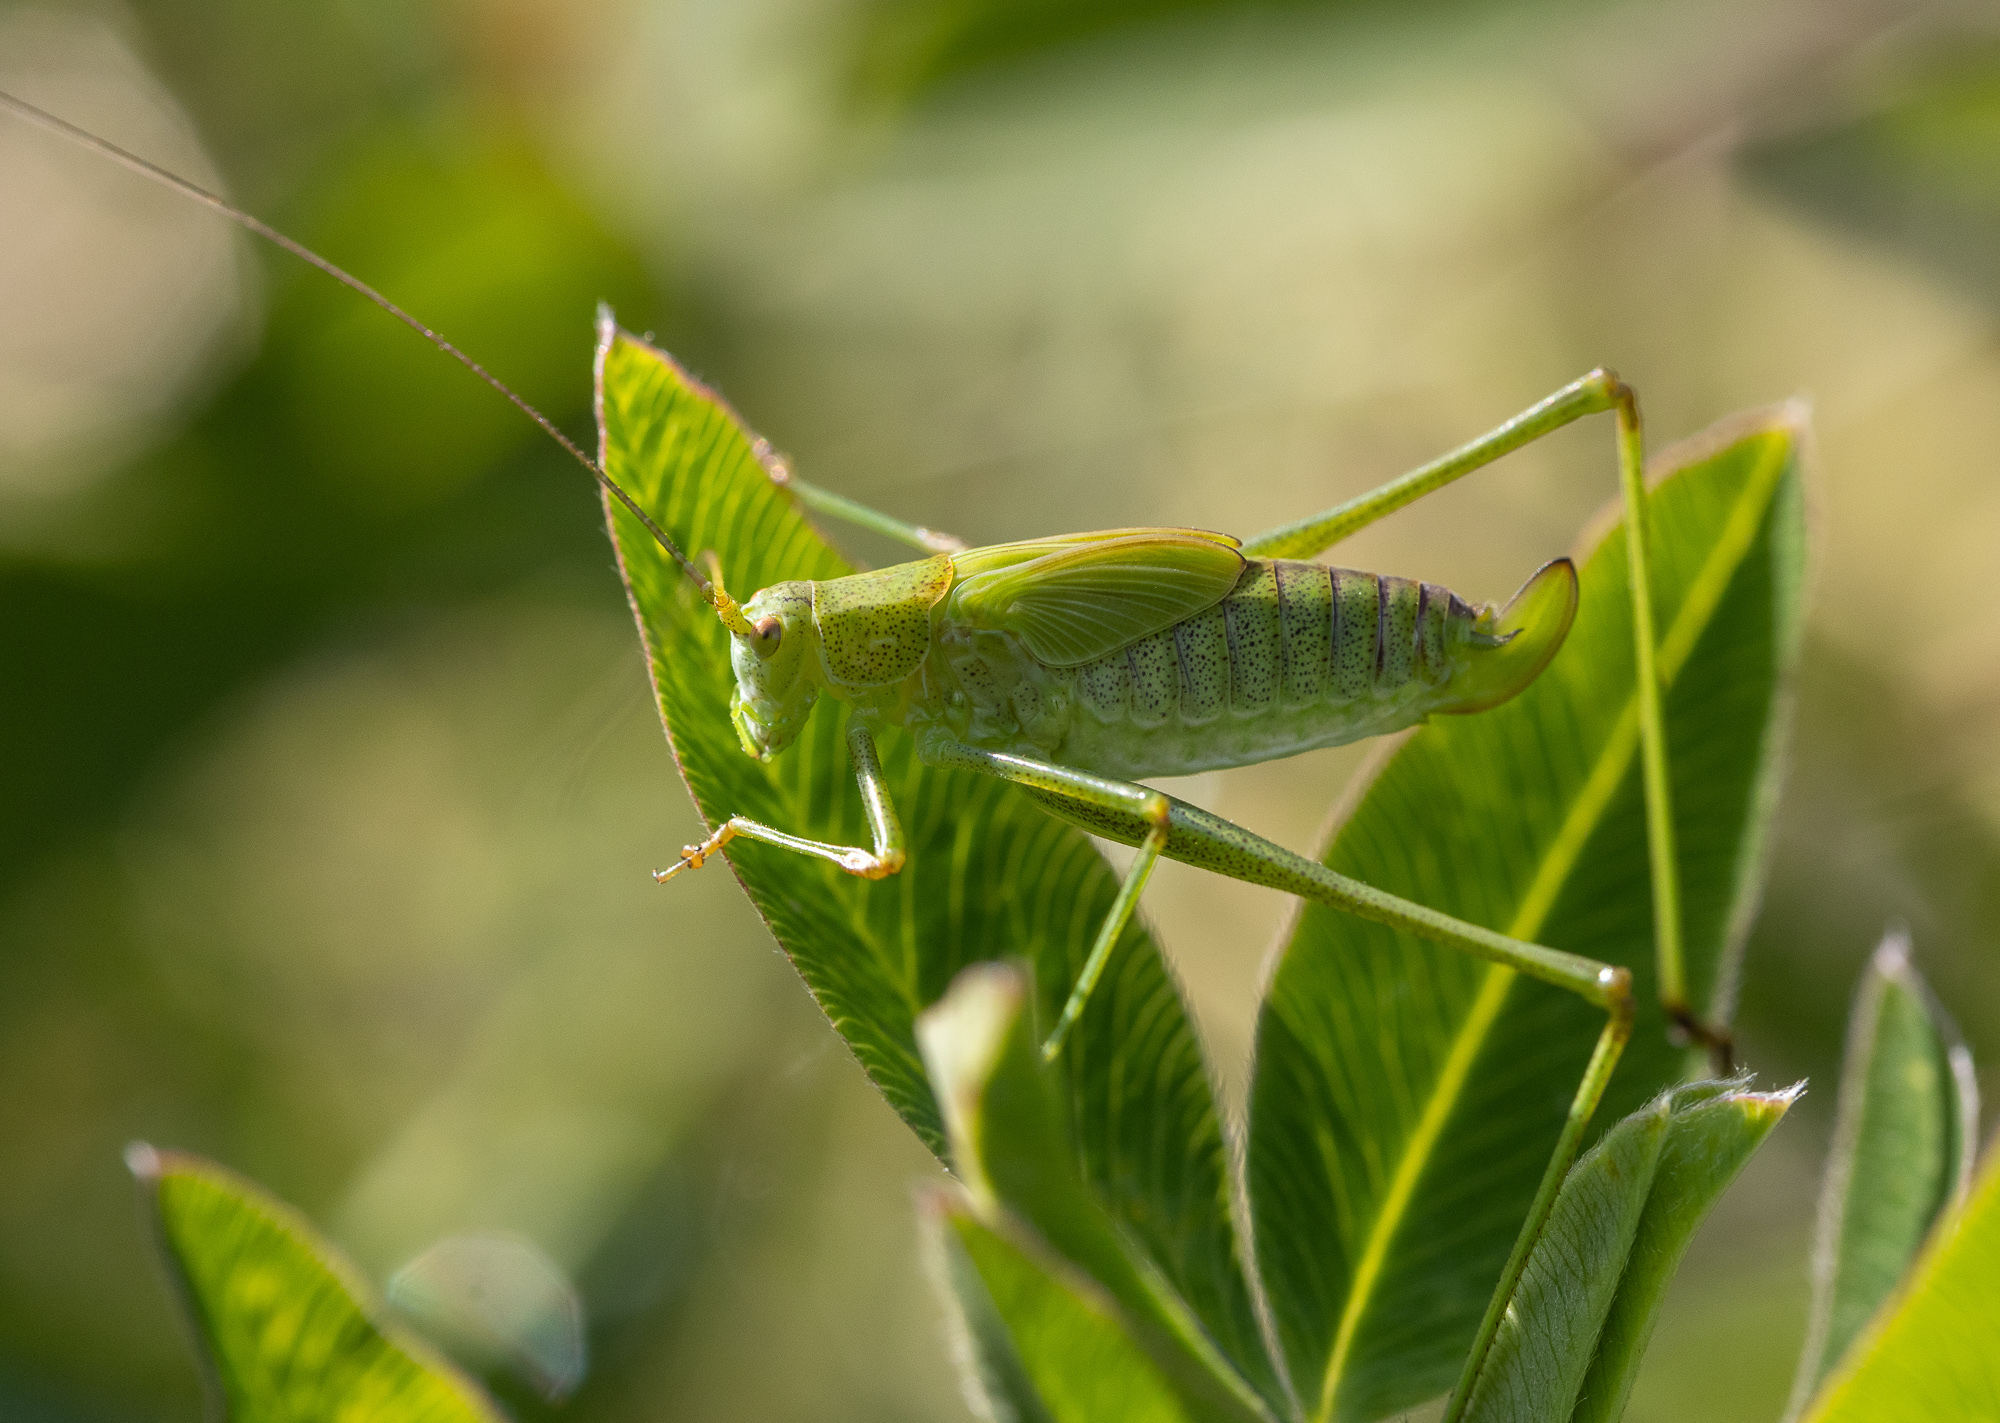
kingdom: Animalia
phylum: Arthropoda
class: Insecta
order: Orthoptera
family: Tettigoniidae
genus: Phaneroptera
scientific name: Phaneroptera falcata
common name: Sickle-bearing bush-cricket
